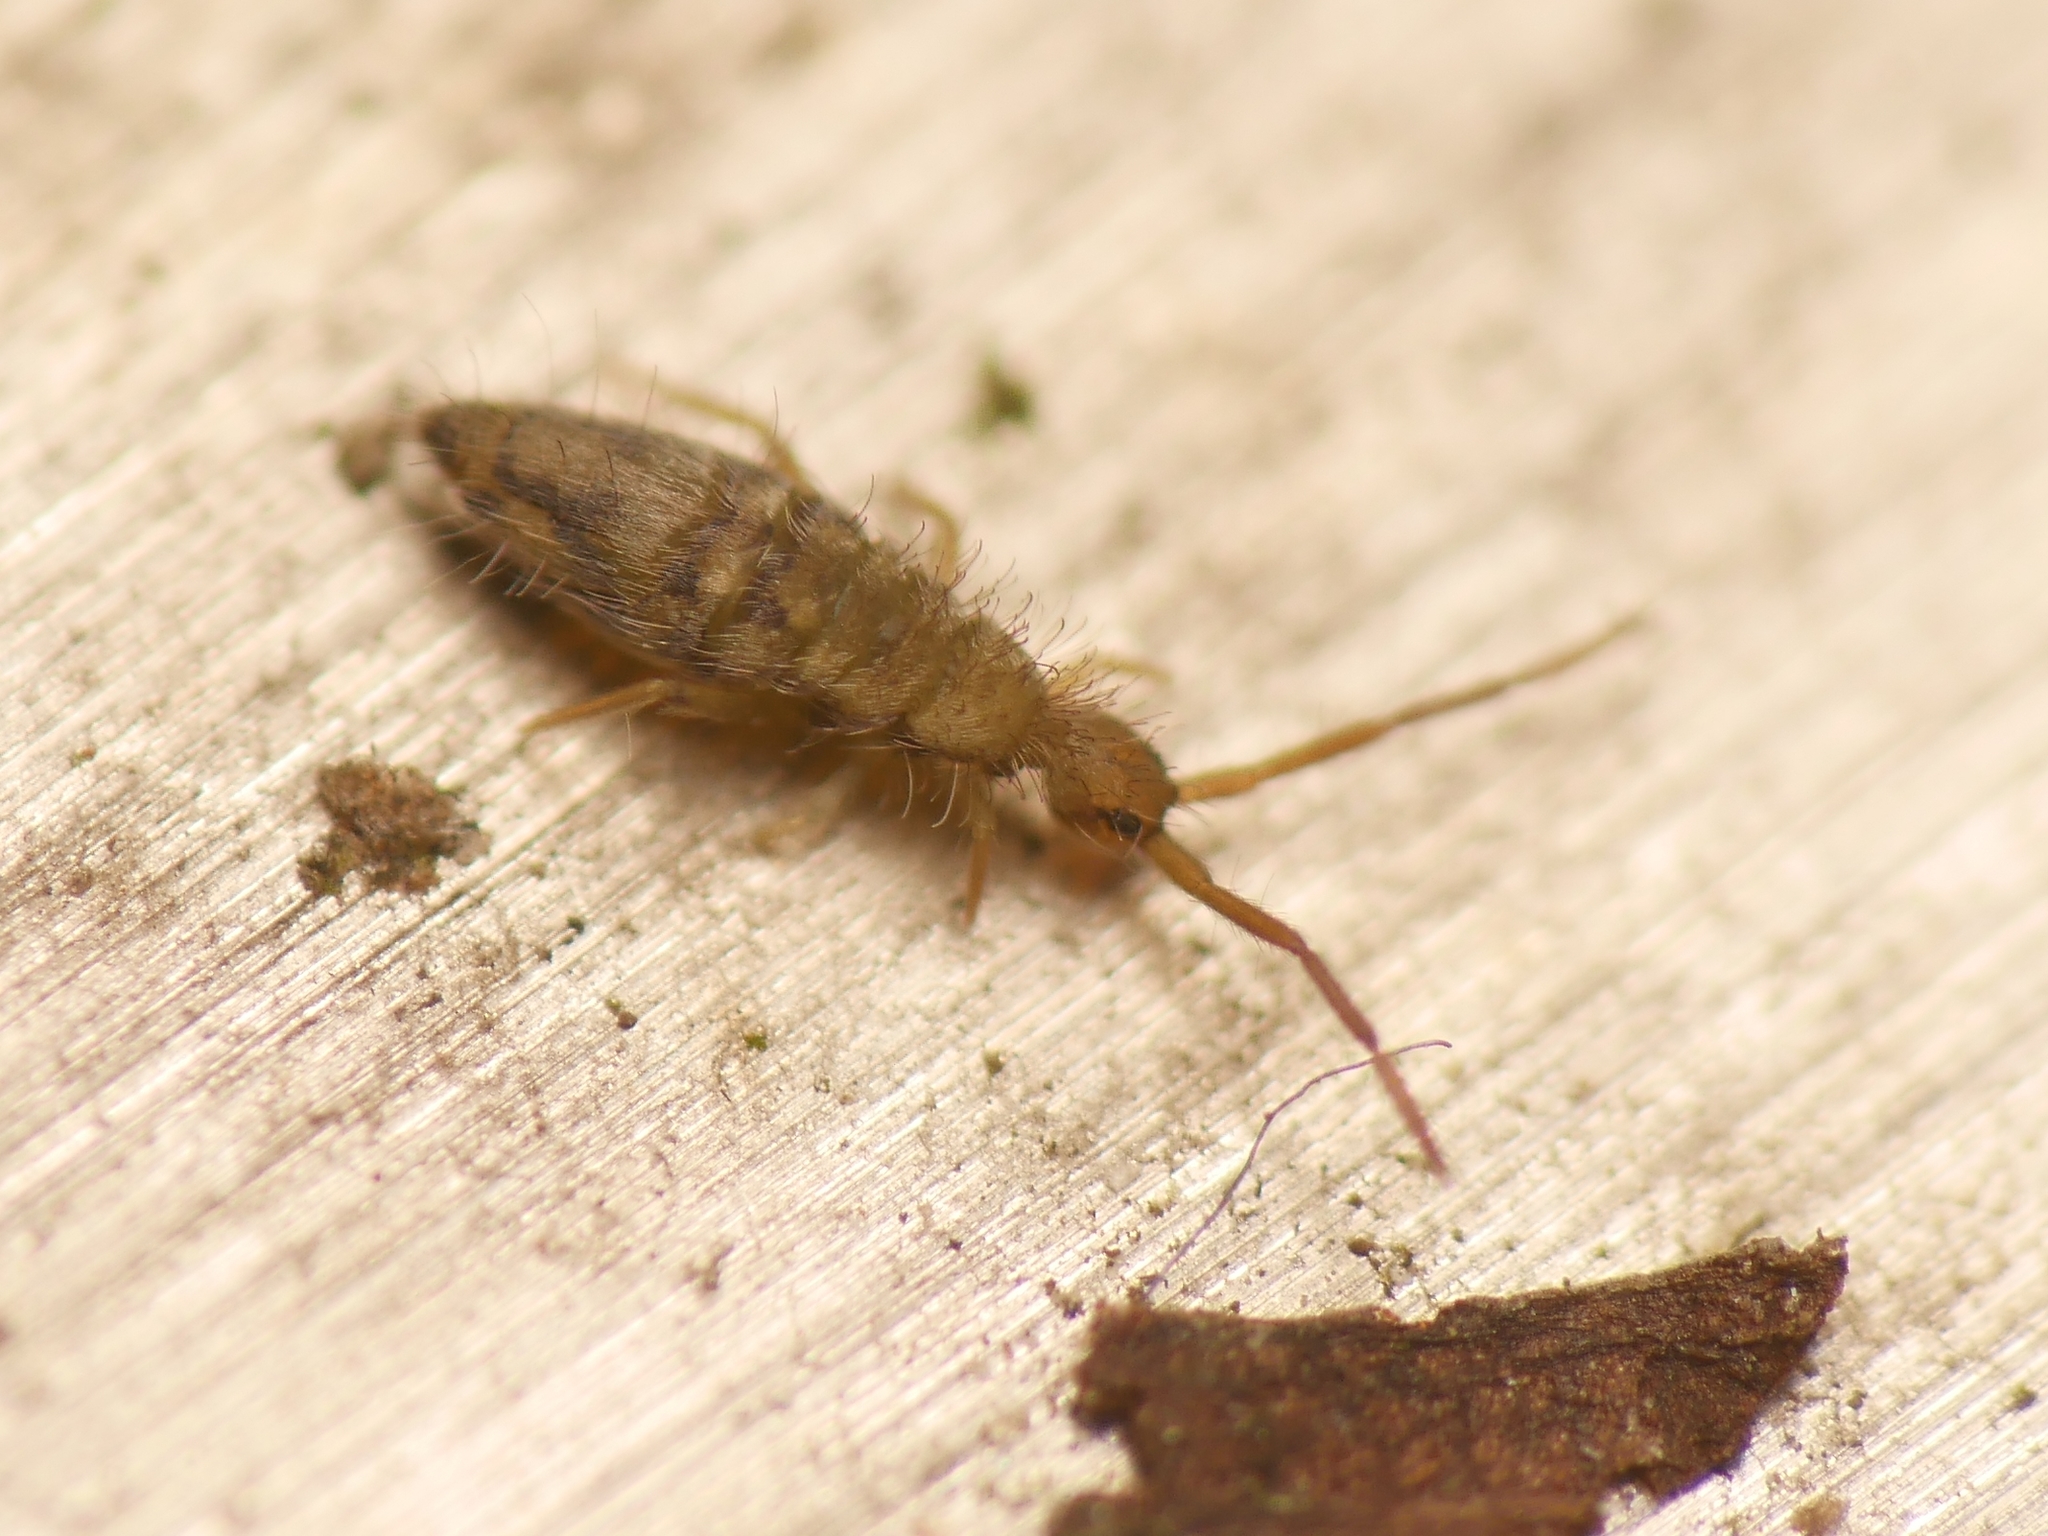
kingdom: Animalia
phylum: Arthropoda
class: Collembola
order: Entomobryomorpha
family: Entomobryidae
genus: Entomobrya
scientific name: Entomobrya nivalis
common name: Cosmopolitan springtail
